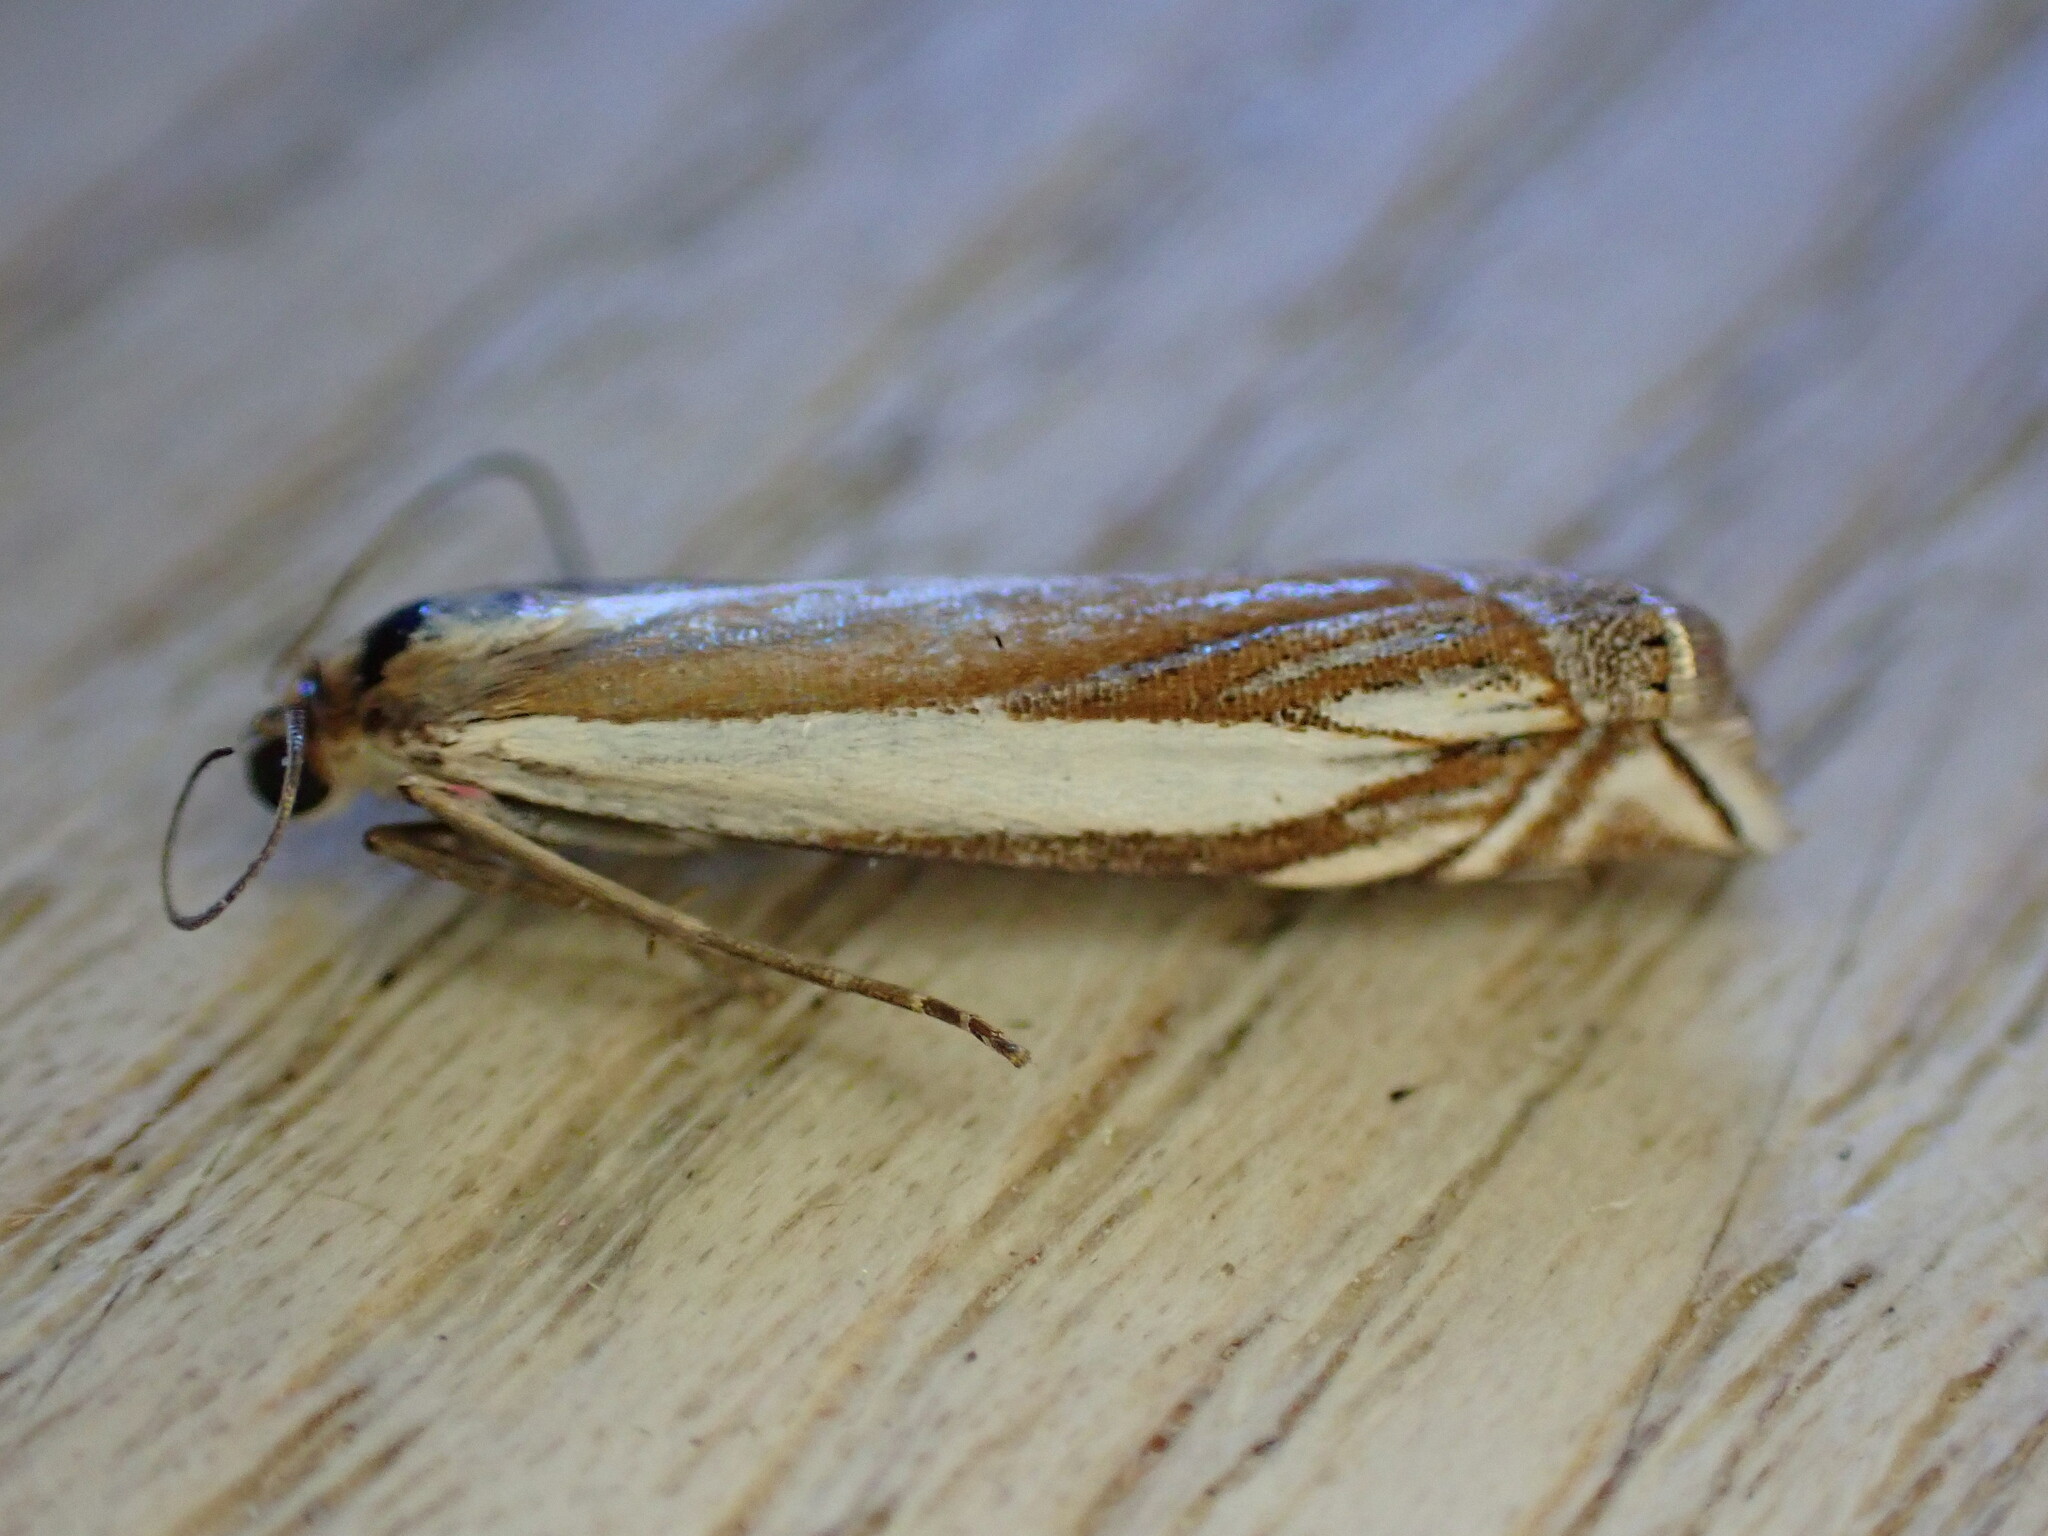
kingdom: Animalia
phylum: Arthropoda
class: Insecta
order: Lepidoptera
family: Crambidae
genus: Crambus
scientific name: Crambus pascuella
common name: Inlaid grass-veneer
